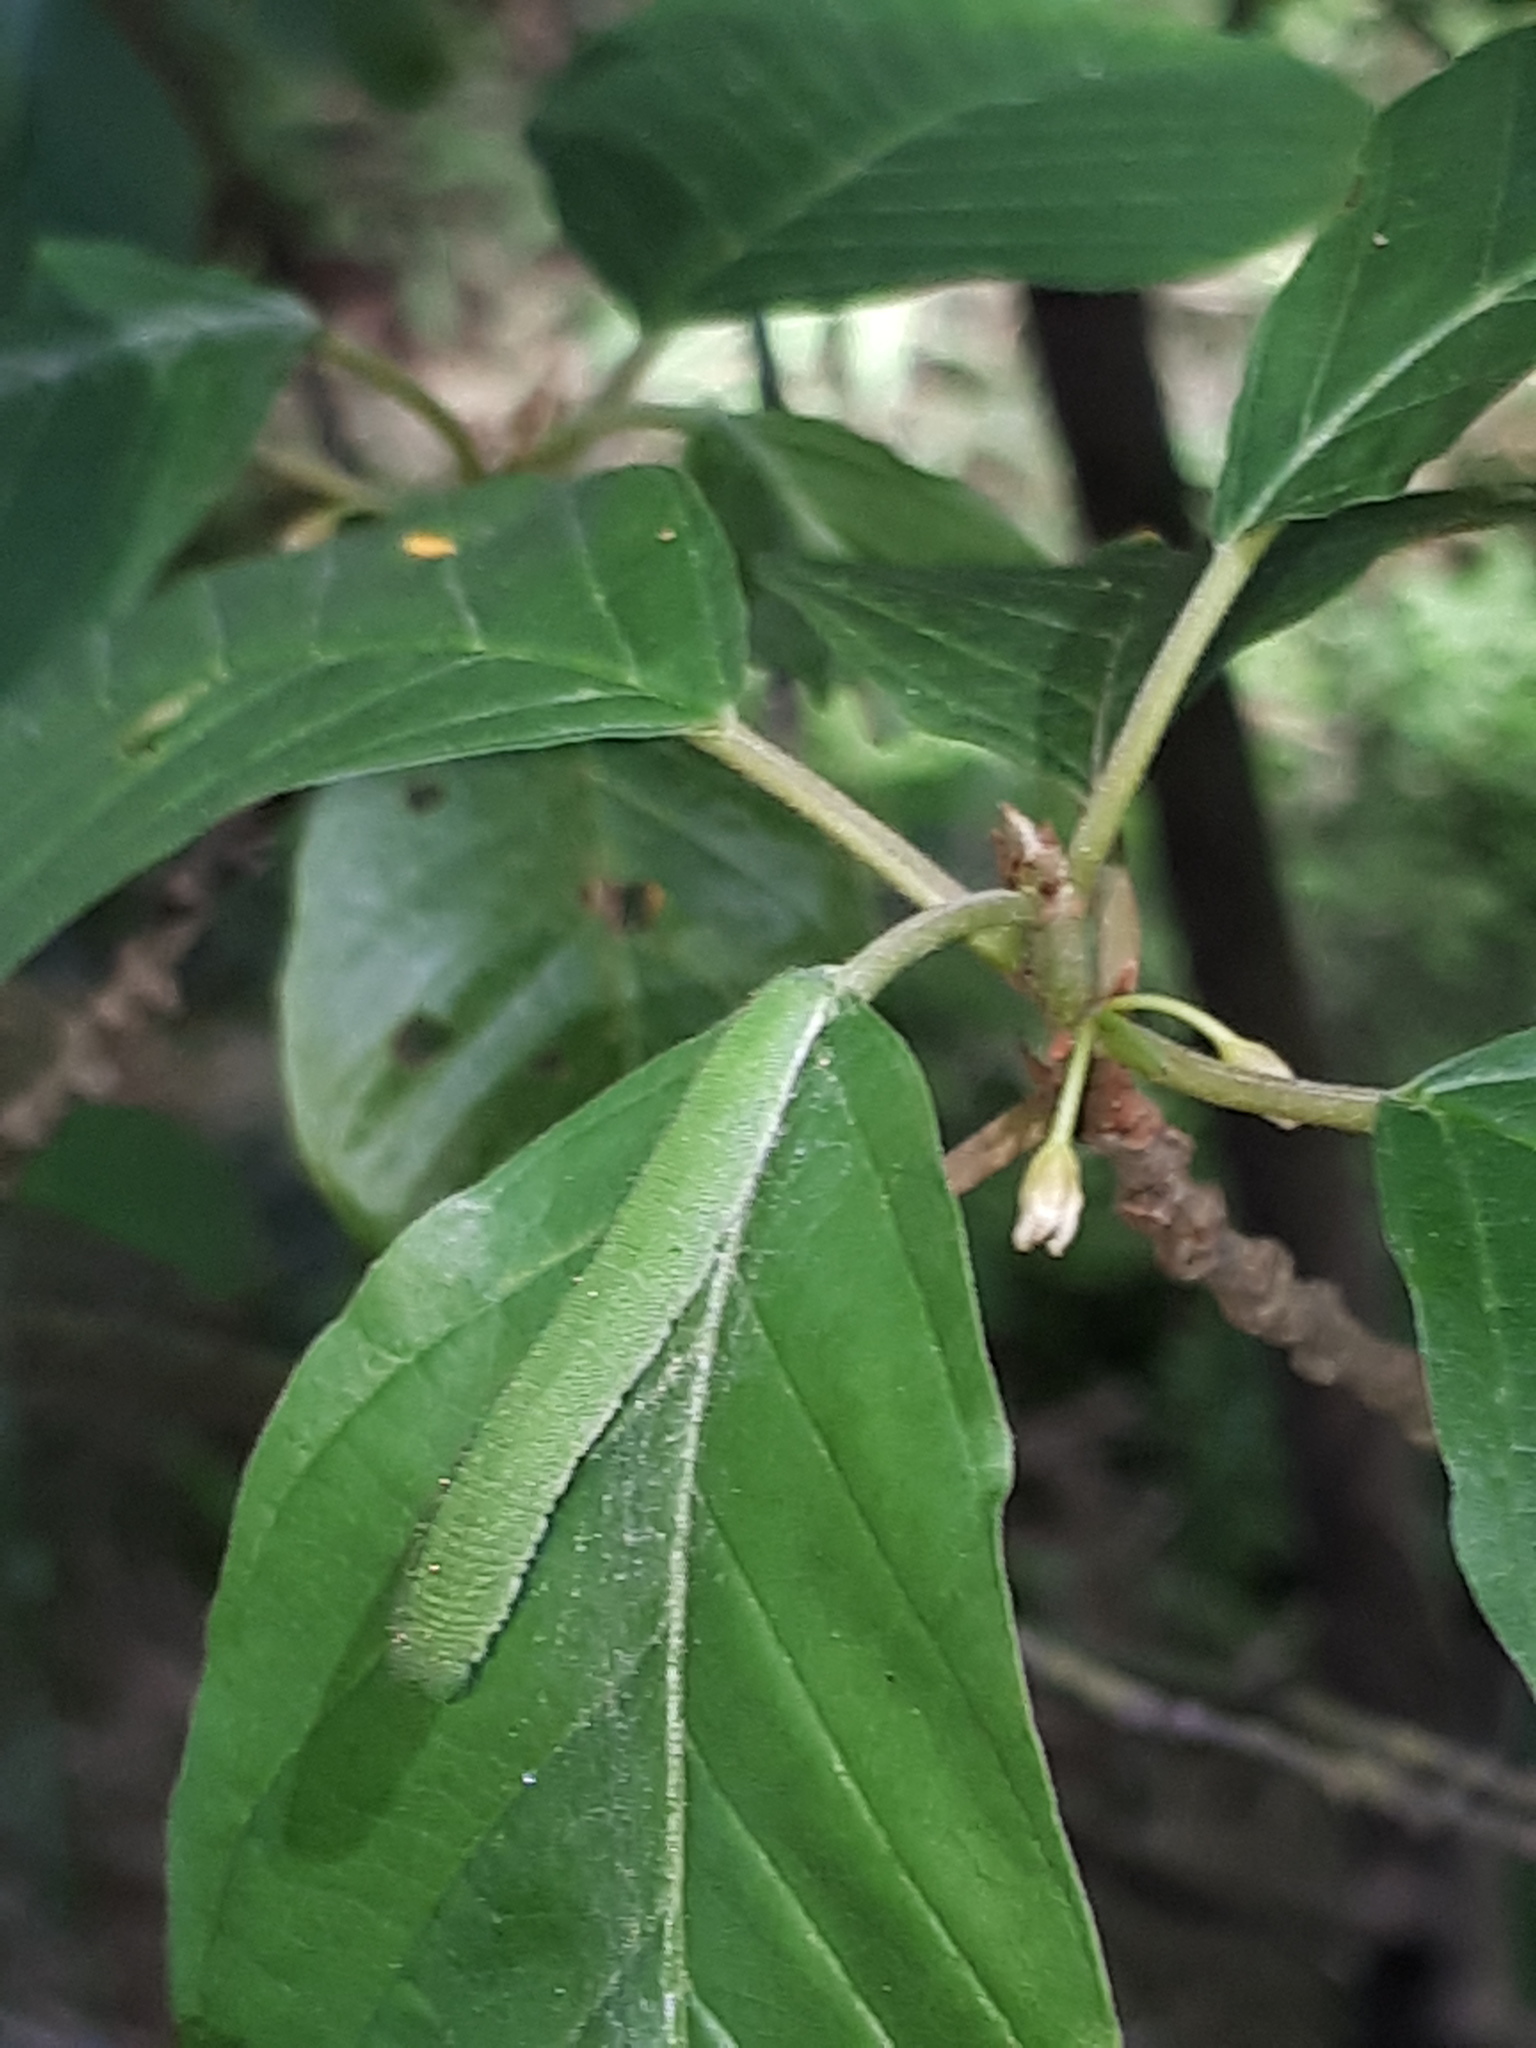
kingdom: Animalia
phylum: Arthropoda
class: Insecta
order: Lepidoptera
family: Pieridae
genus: Gonepteryx
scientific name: Gonepteryx rhamni
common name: Brimstone
